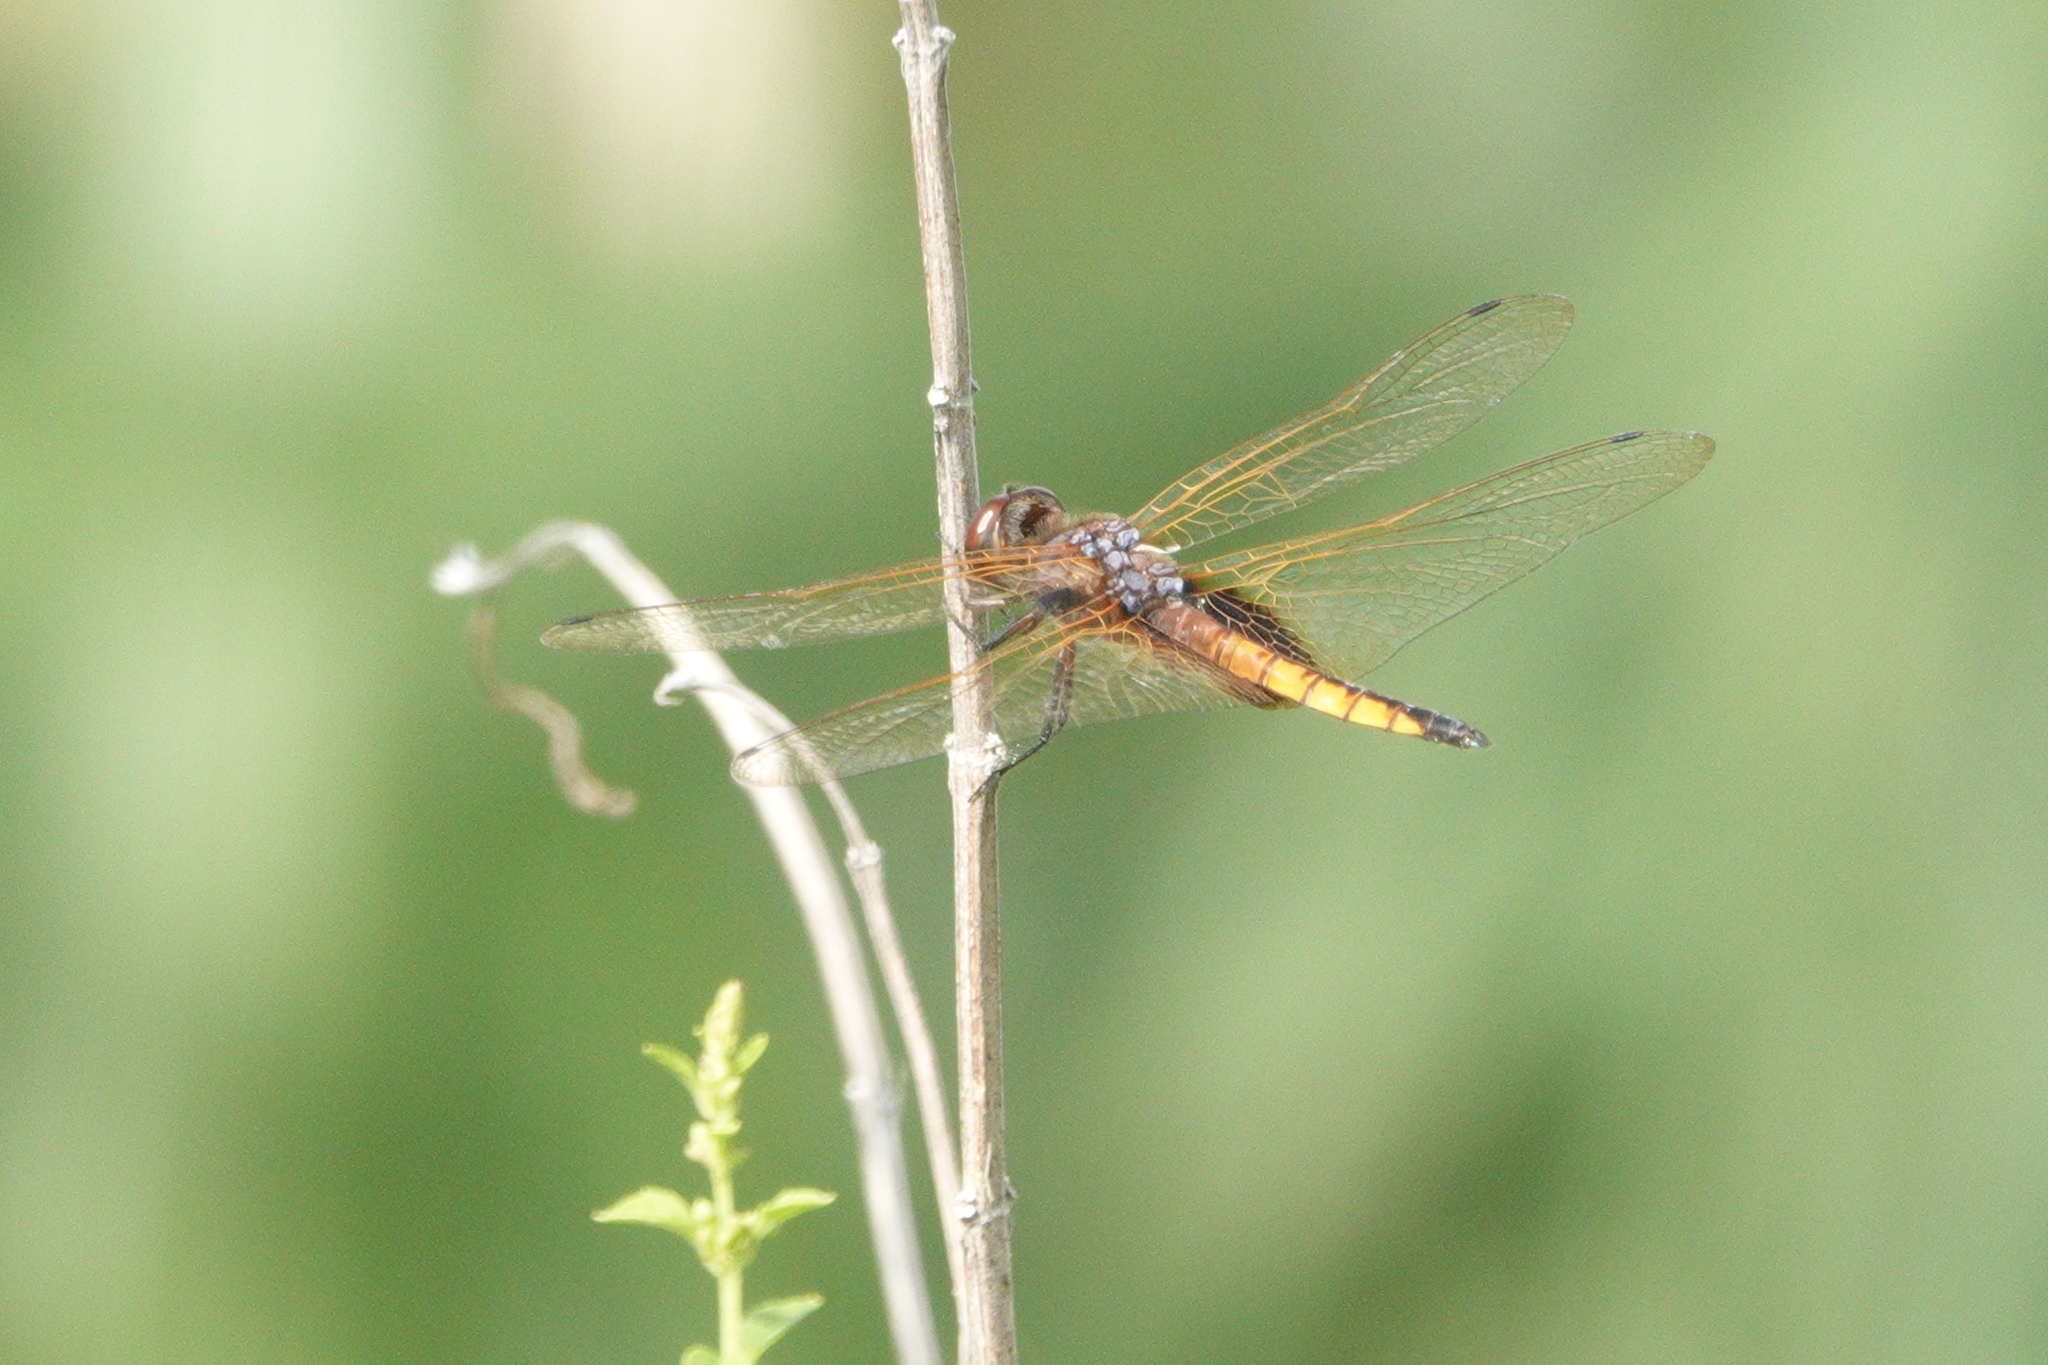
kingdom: Animalia
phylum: Arthropoda
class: Insecta
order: Odonata
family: Libellulidae
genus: Miathyria
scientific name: Miathyria marcella
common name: Hyacinth glider
